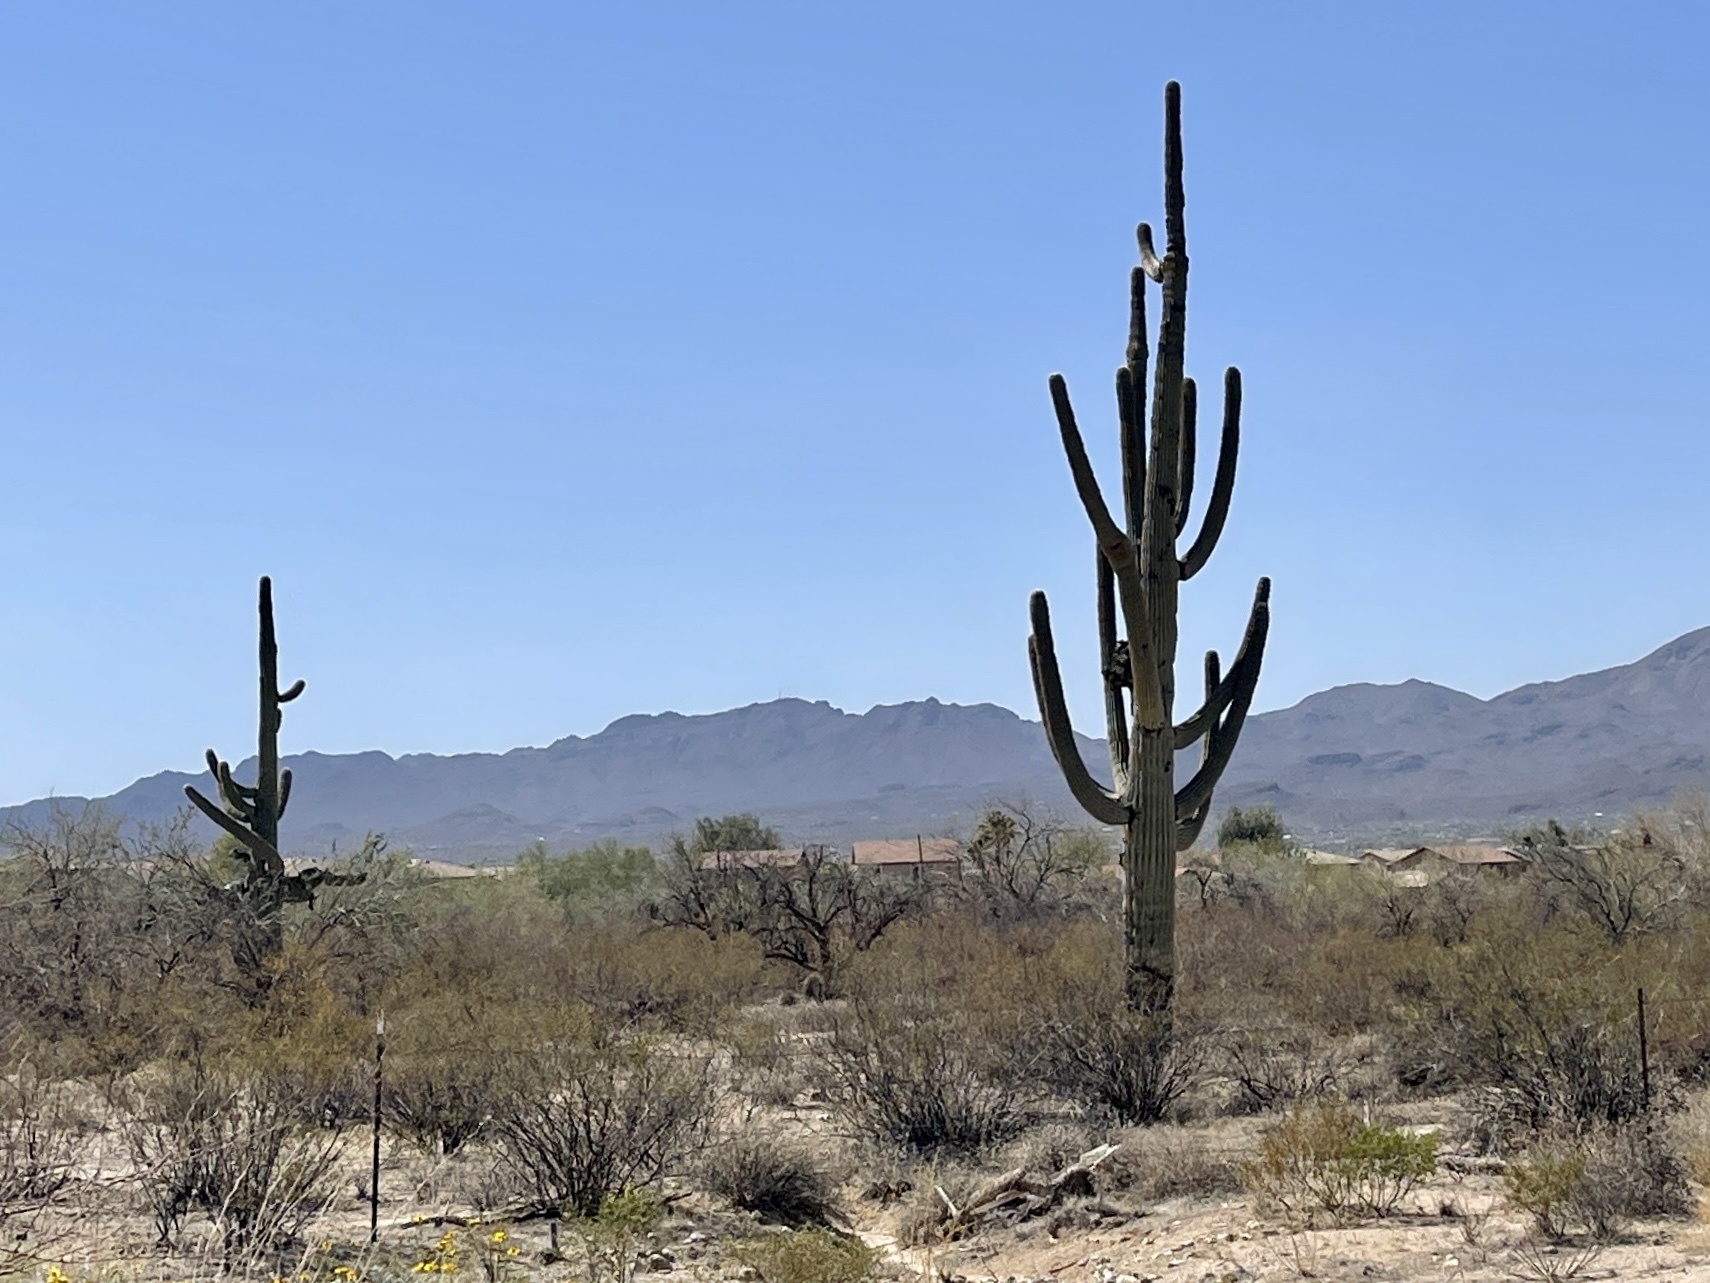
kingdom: Plantae
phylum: Tracheophyta
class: Magnoliopsida
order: Caryophyllales
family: Cactaceae
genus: Carnegiea
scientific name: Carnegiea gigantea
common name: Saguaro
